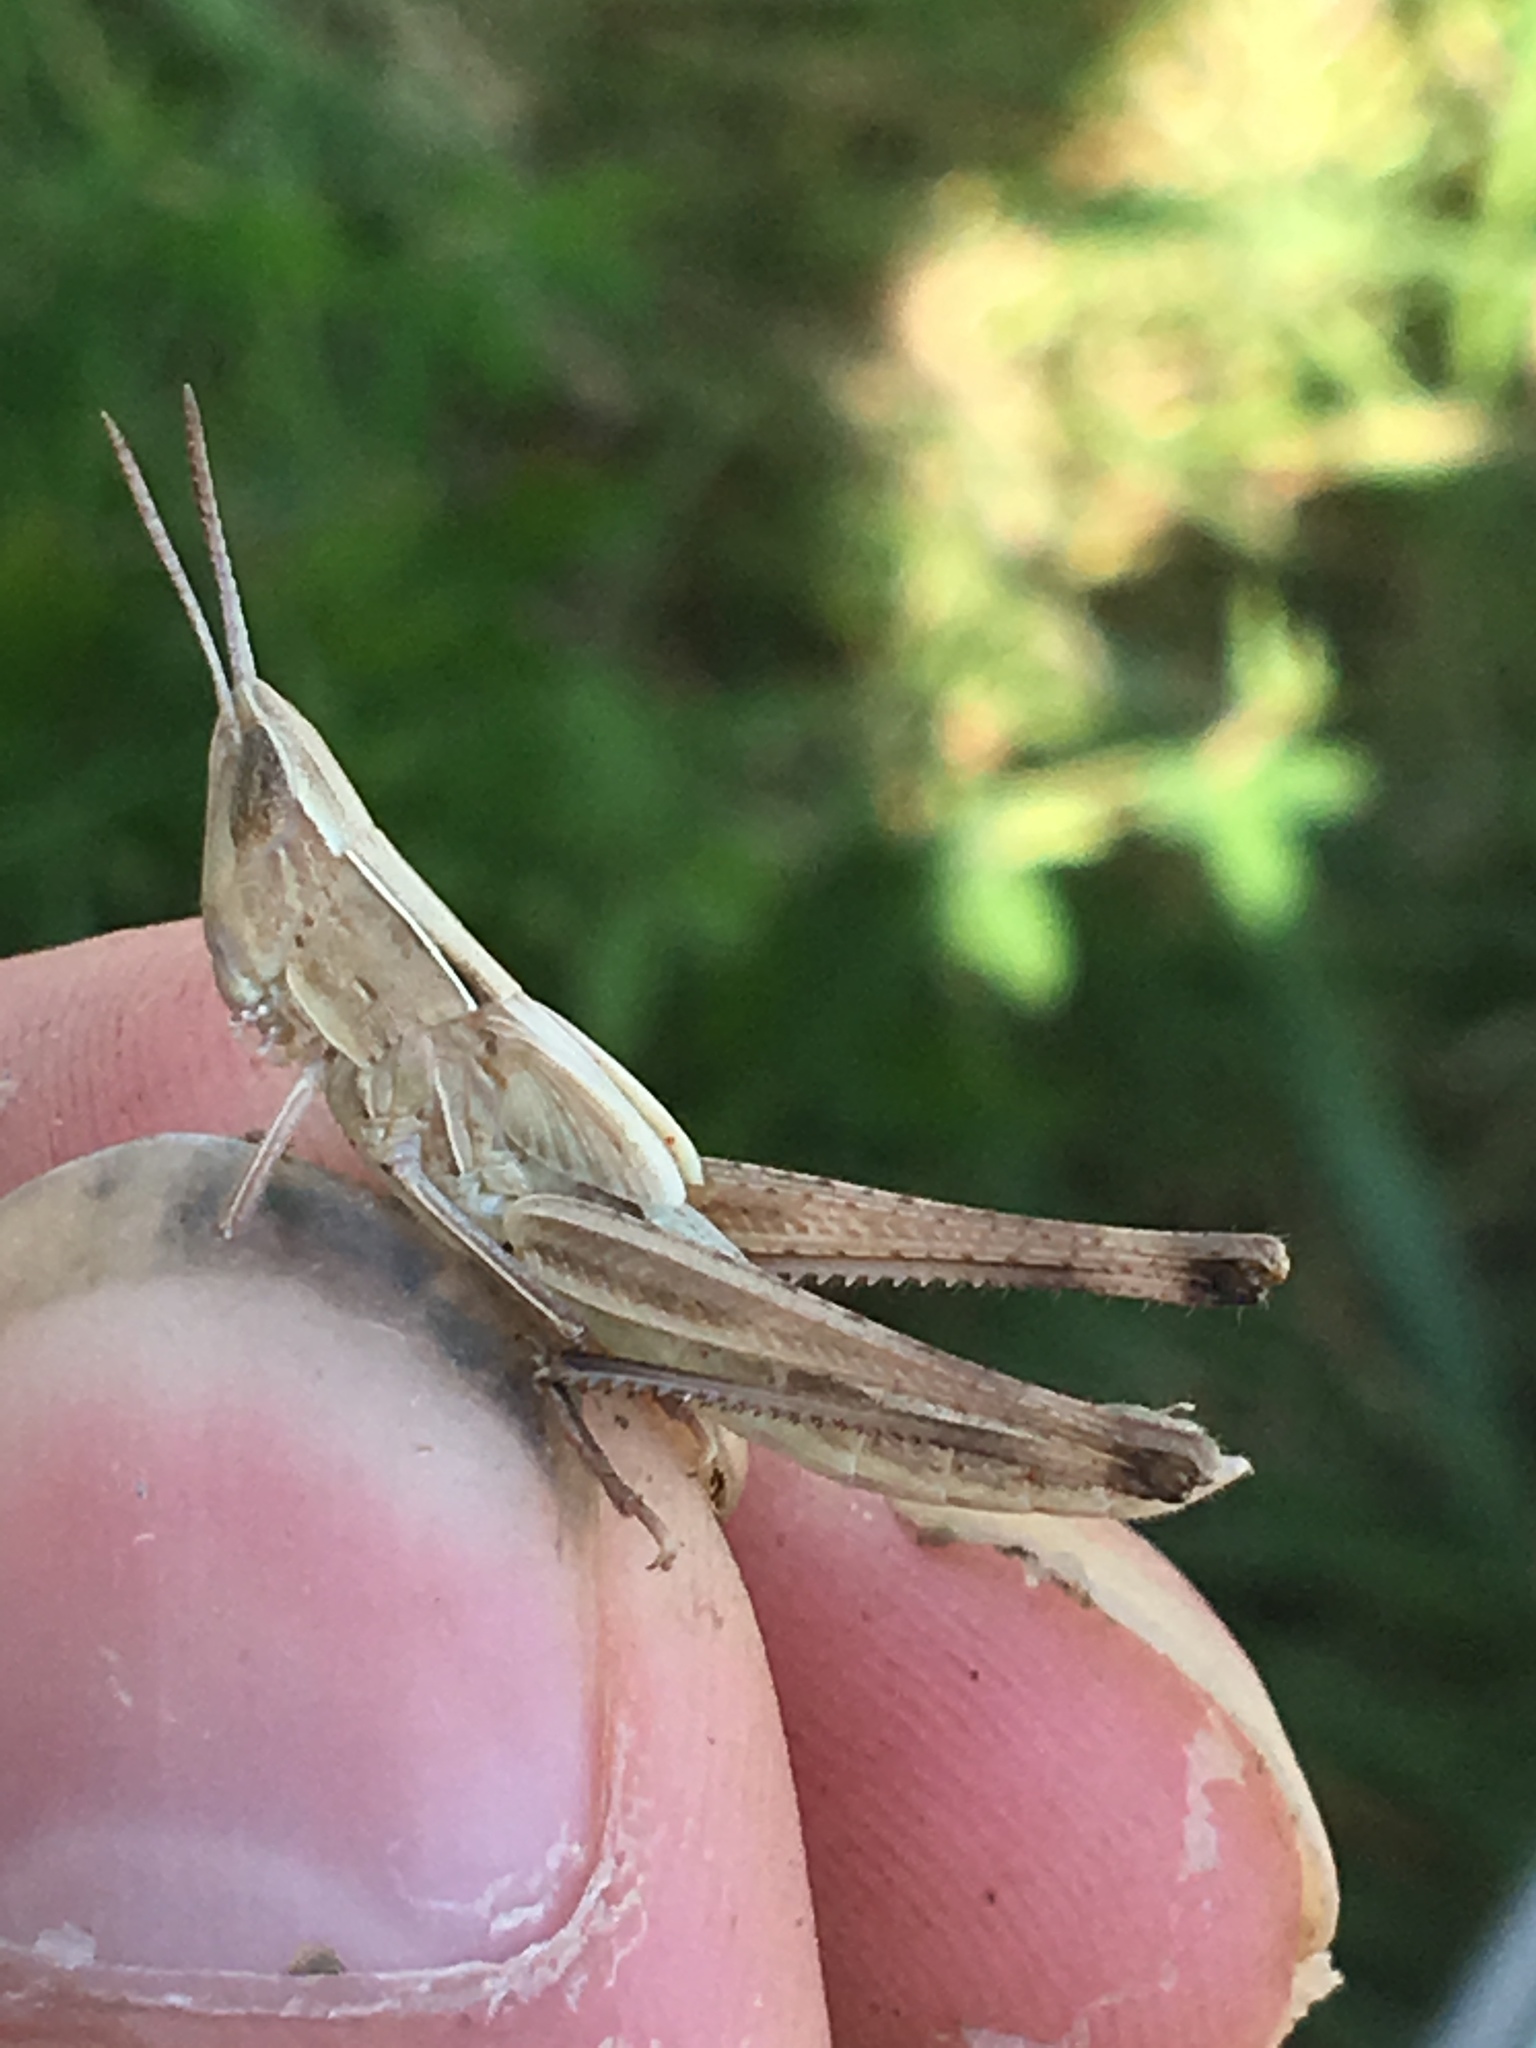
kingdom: Animalia
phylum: Arthropoda
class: Insecta
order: Orthoptera
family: Acrididae
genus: Syrbula
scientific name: Syrbula admirabilis
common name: Handsome grasshopper
